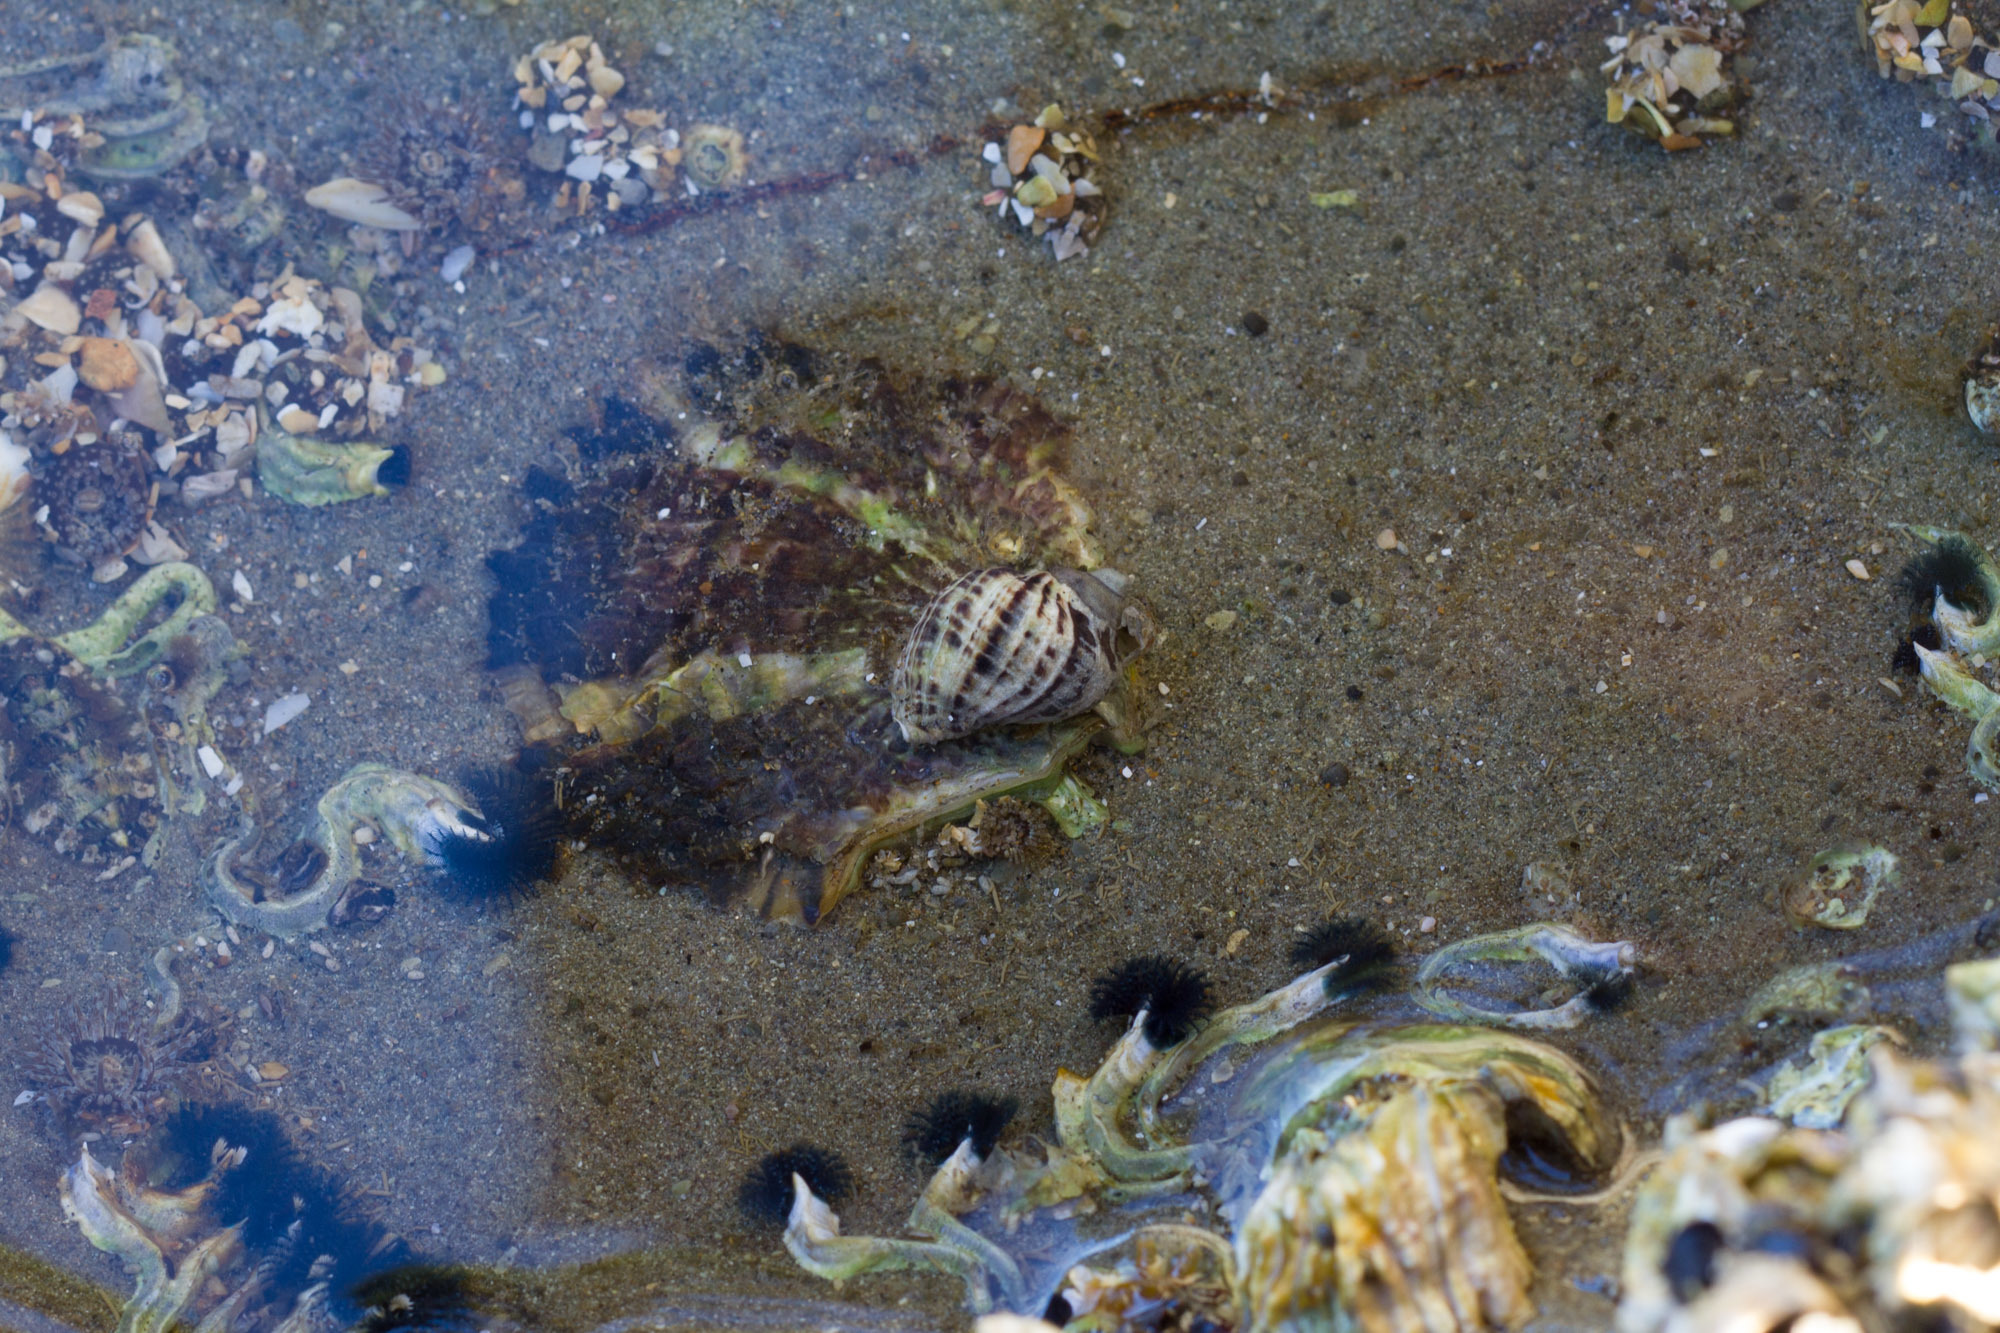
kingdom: Animalia
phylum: Mollusca
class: Bivalvia
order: Ostreida
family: Ostreidae
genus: Magallana
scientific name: Magallana gigas
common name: Pacific oyster
